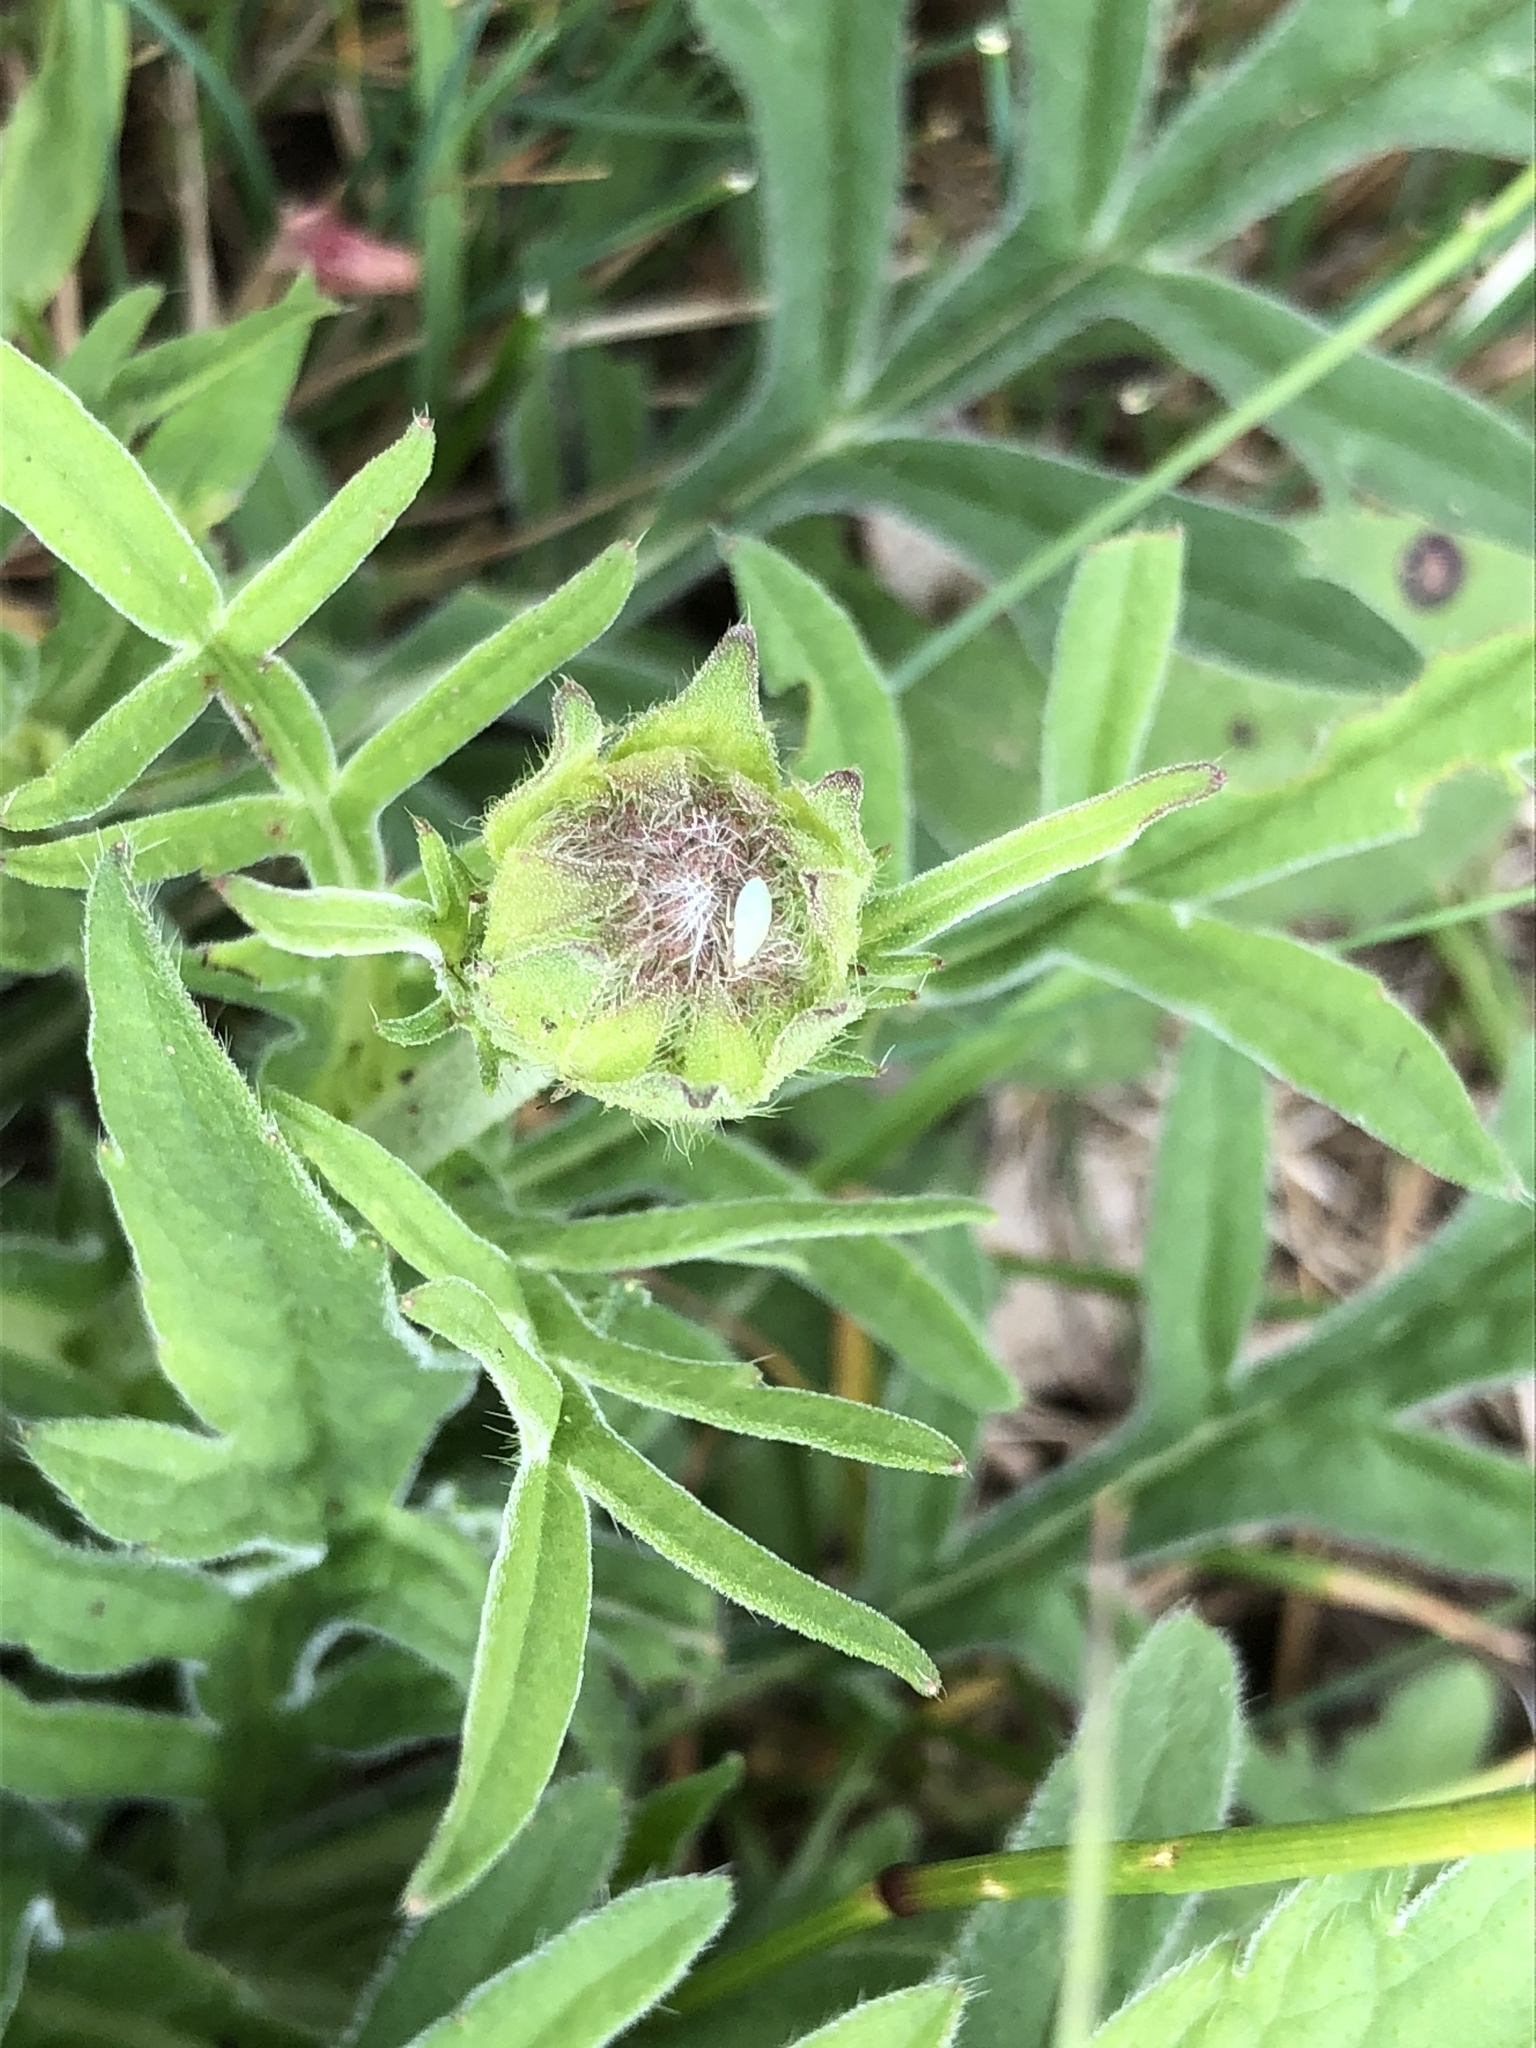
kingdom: Plantae
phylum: Tracheophyta
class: Magnoliopsida
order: Dipsacales
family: Caprifoliaceae
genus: Knautia
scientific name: Knautia arvensis
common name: Field scabiosa
